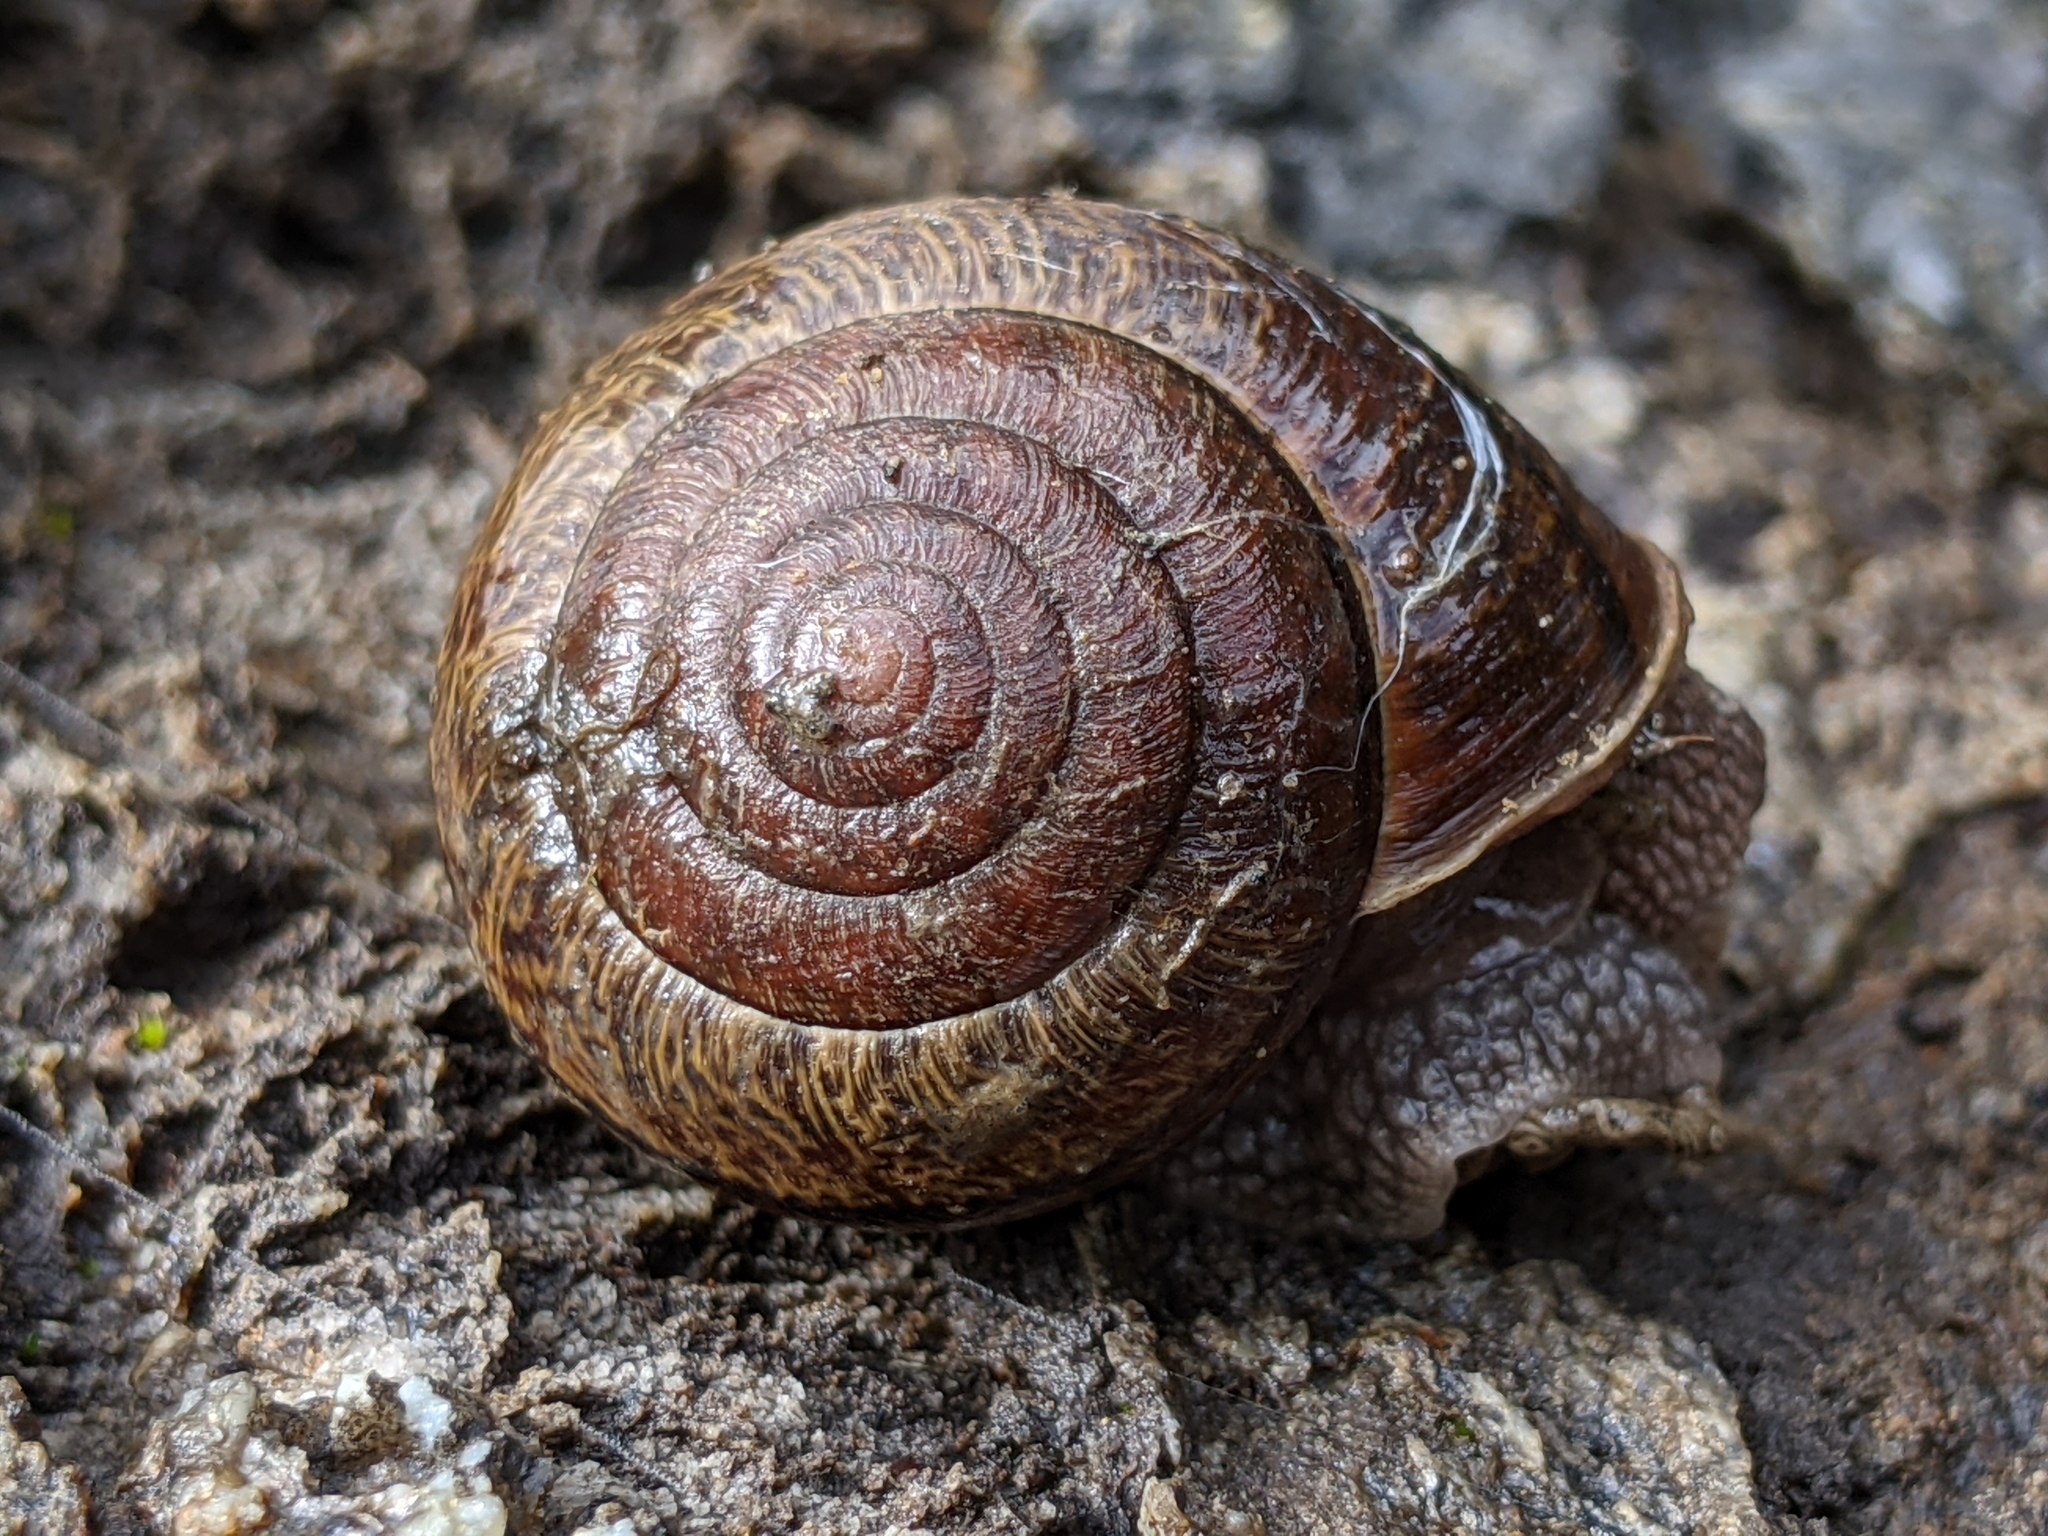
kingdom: Animalia
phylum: Mollusca
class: Gastropoda
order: Stylommatophora
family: Xanthonychidae
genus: Helminthoglypta
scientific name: Helminthoglypta arrosa
